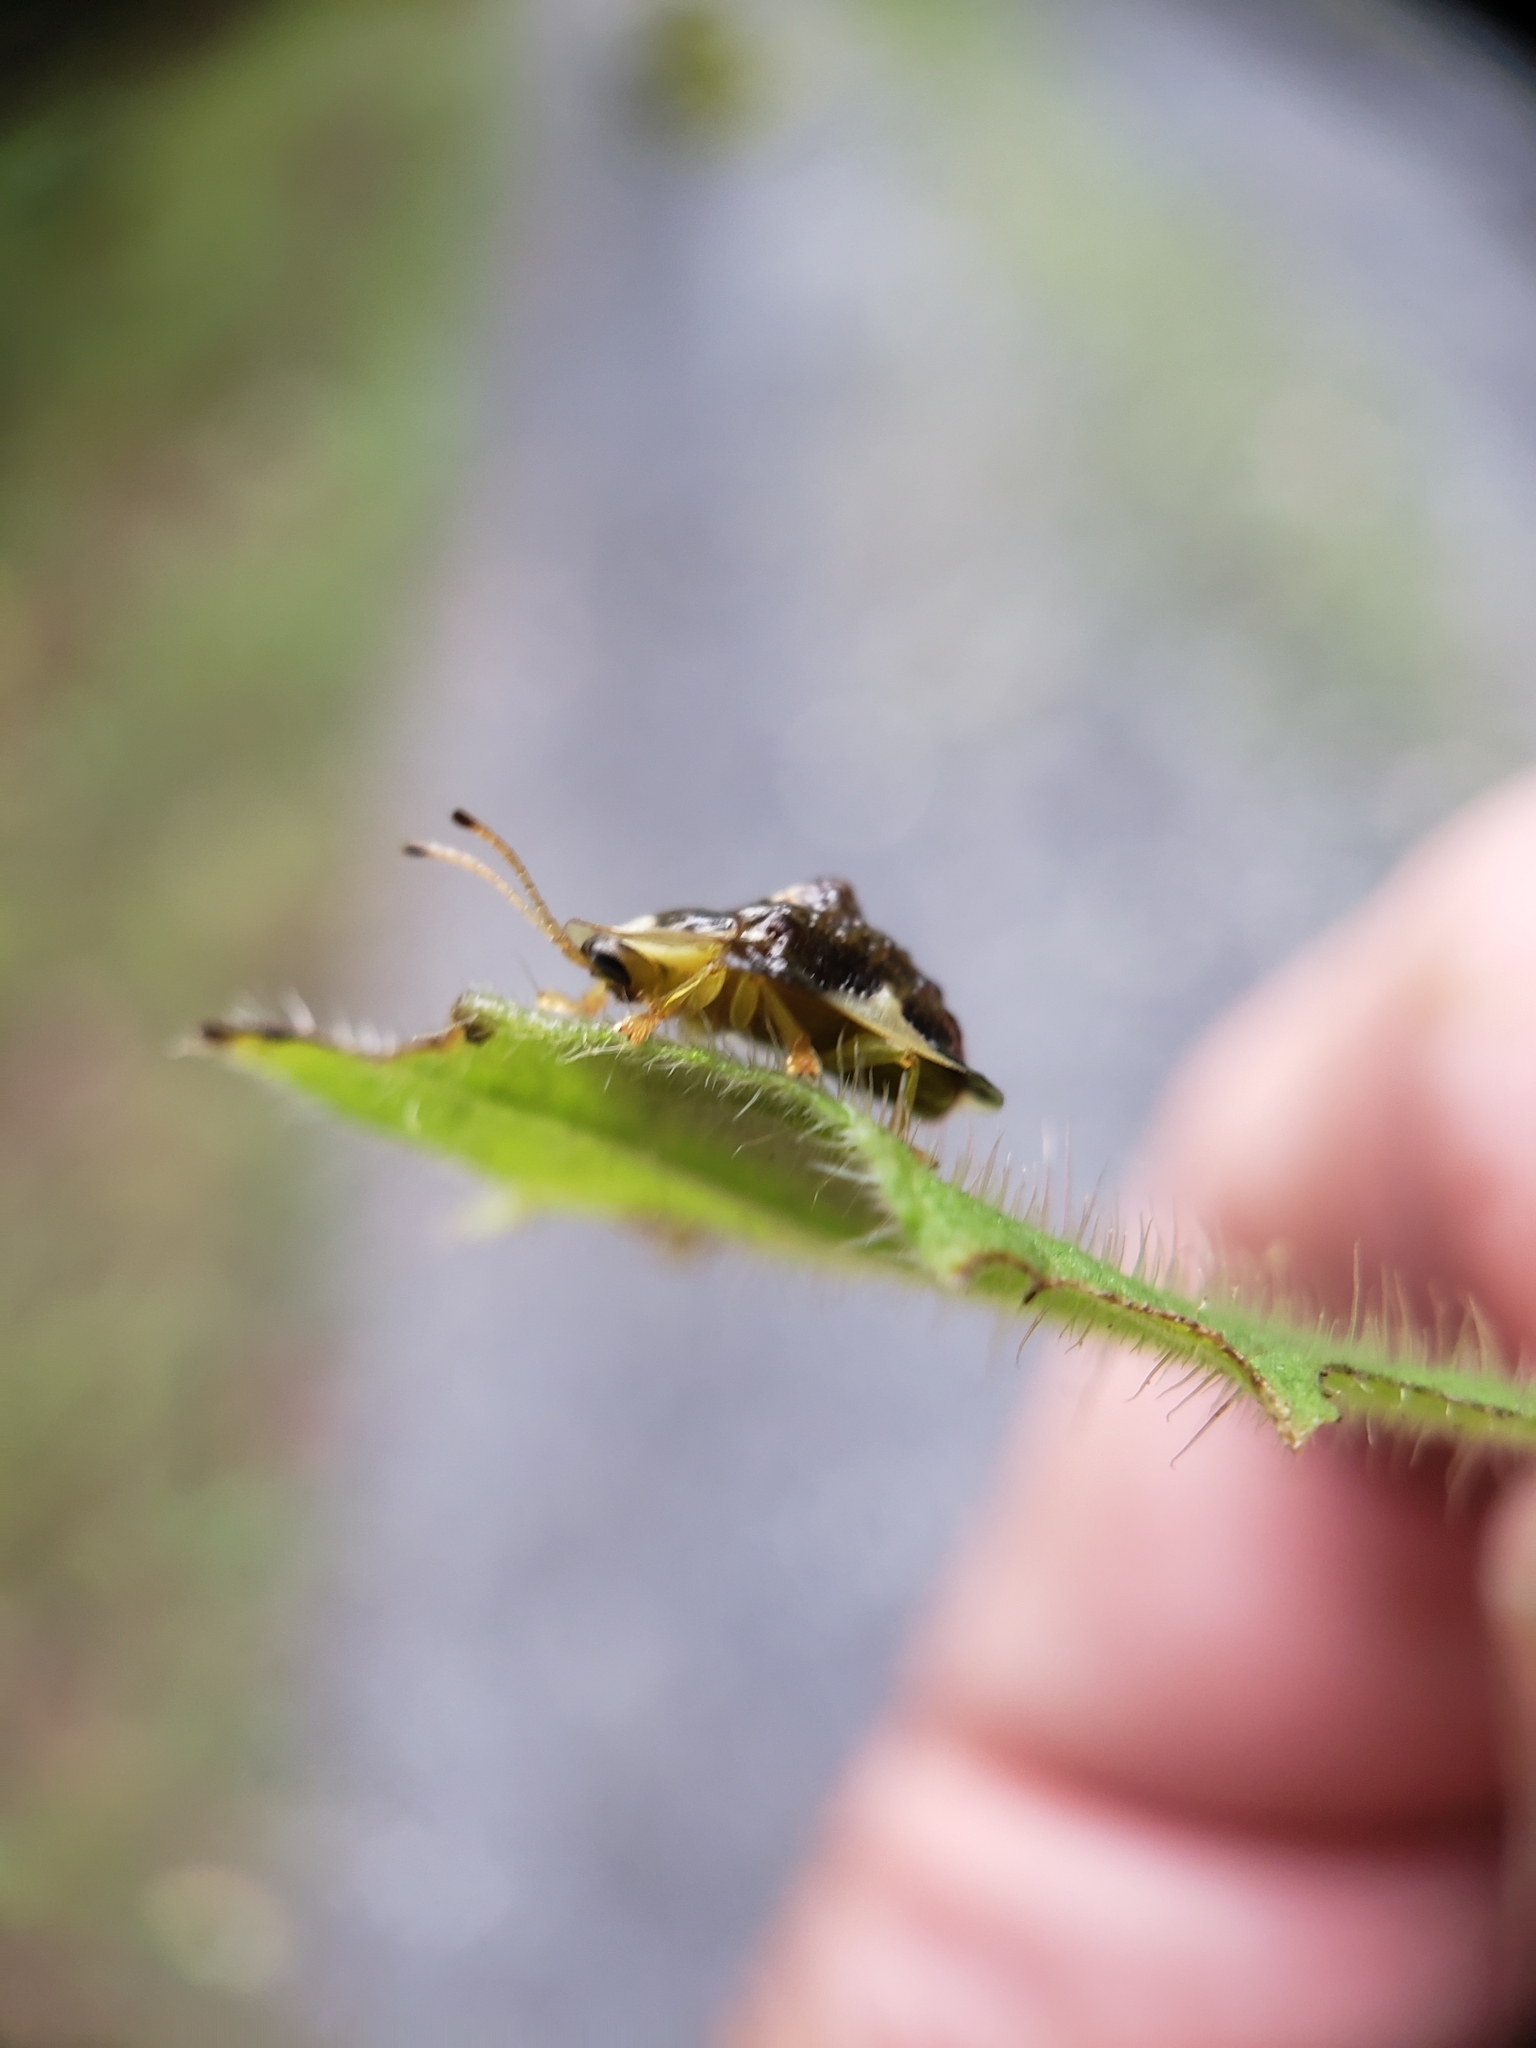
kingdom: Animalia
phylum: Arthropoda
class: Insecta
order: Coleoptera
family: Chrysomelidae
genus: Helocassis
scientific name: Helocassis clavata
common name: Clavate tortoise beetle
